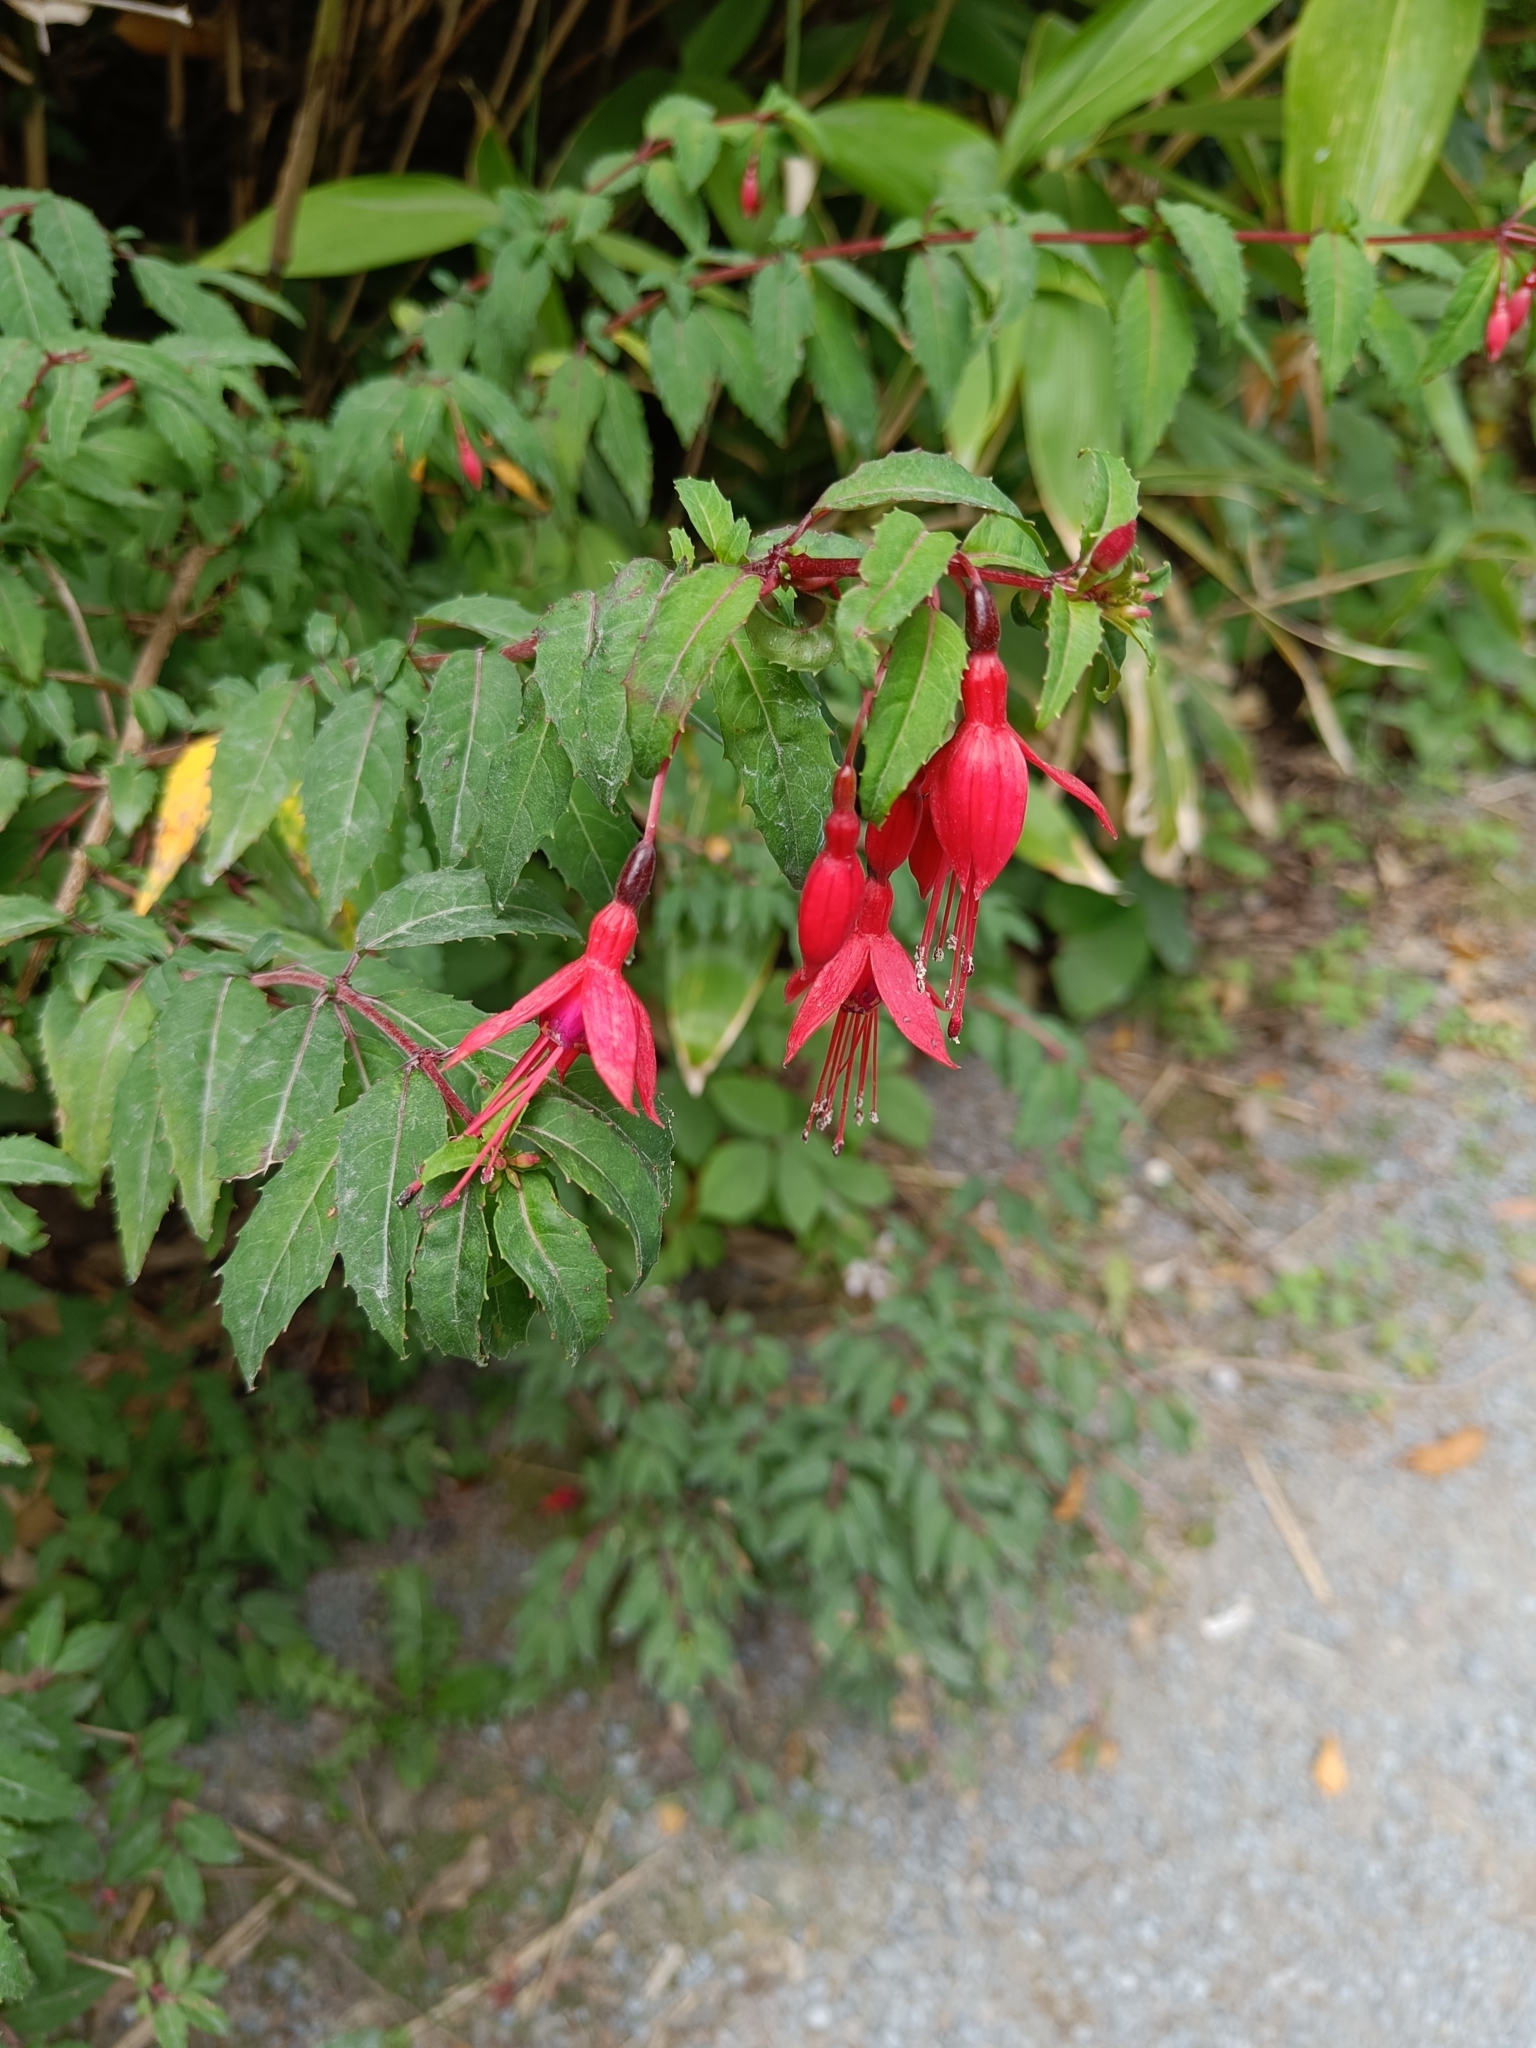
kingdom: Plantae
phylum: Tracheophyta
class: Magnoliopsida
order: Myrtales
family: Onagraceae
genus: Fuchsia
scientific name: Fuchsia magellanica
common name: Hardy fuchsia
